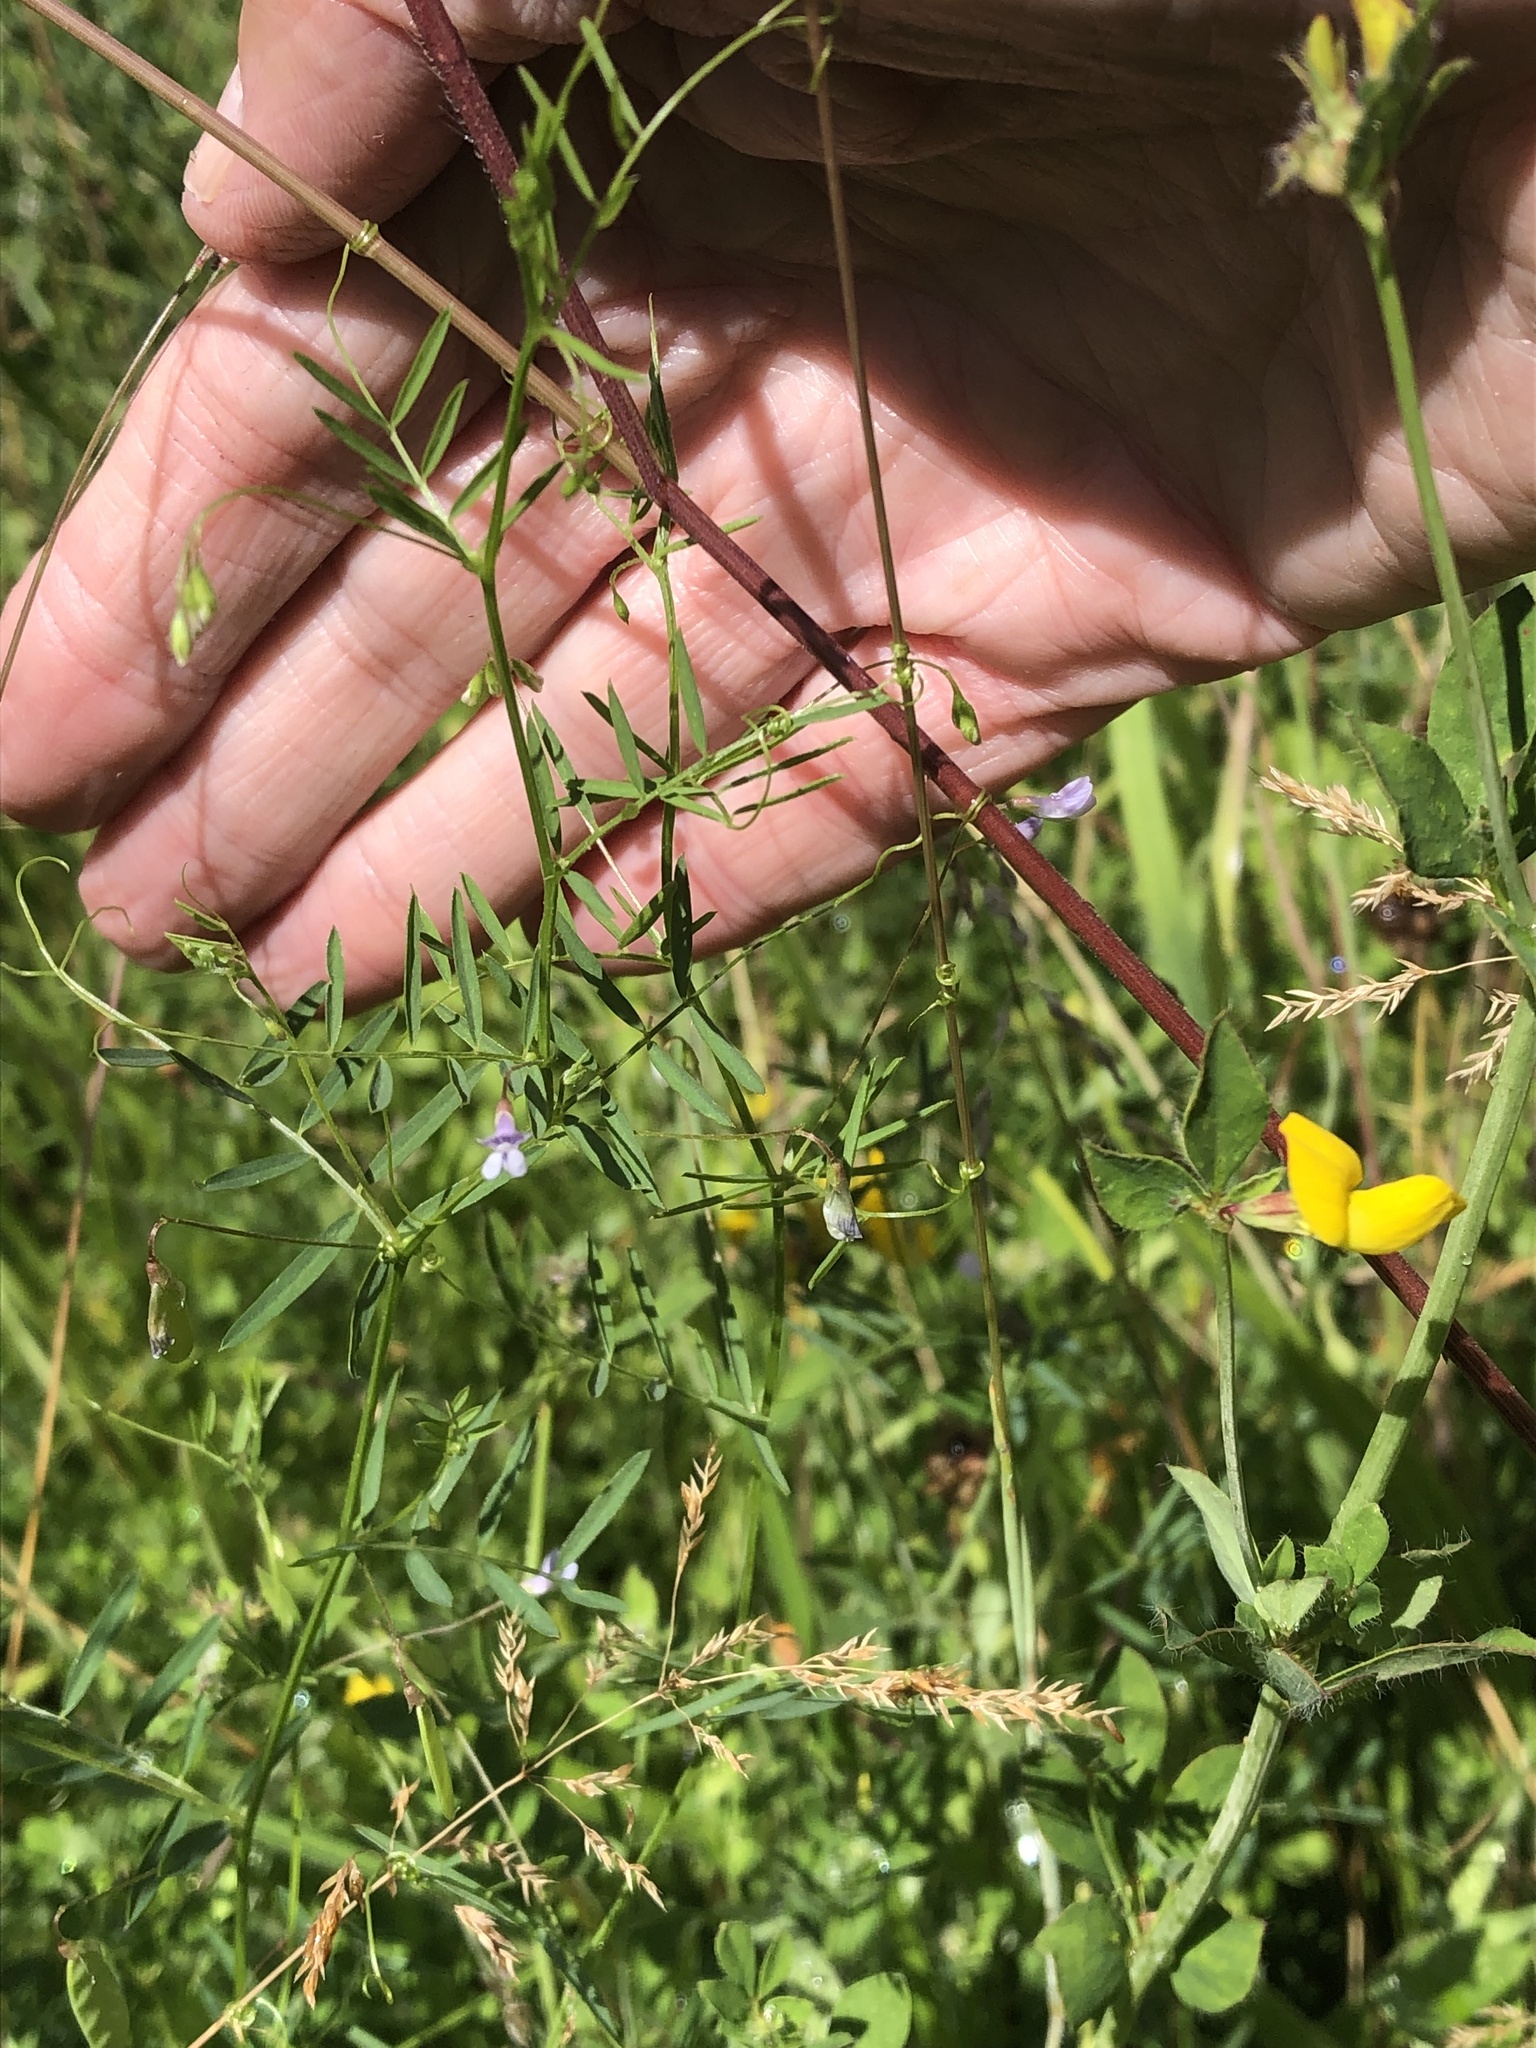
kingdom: Plantae
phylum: Tracheophyta
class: Magnoliopsida
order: Fabales
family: Fabaceae
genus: Vicia
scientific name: Vicia tetrasperma
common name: Smooth tare
